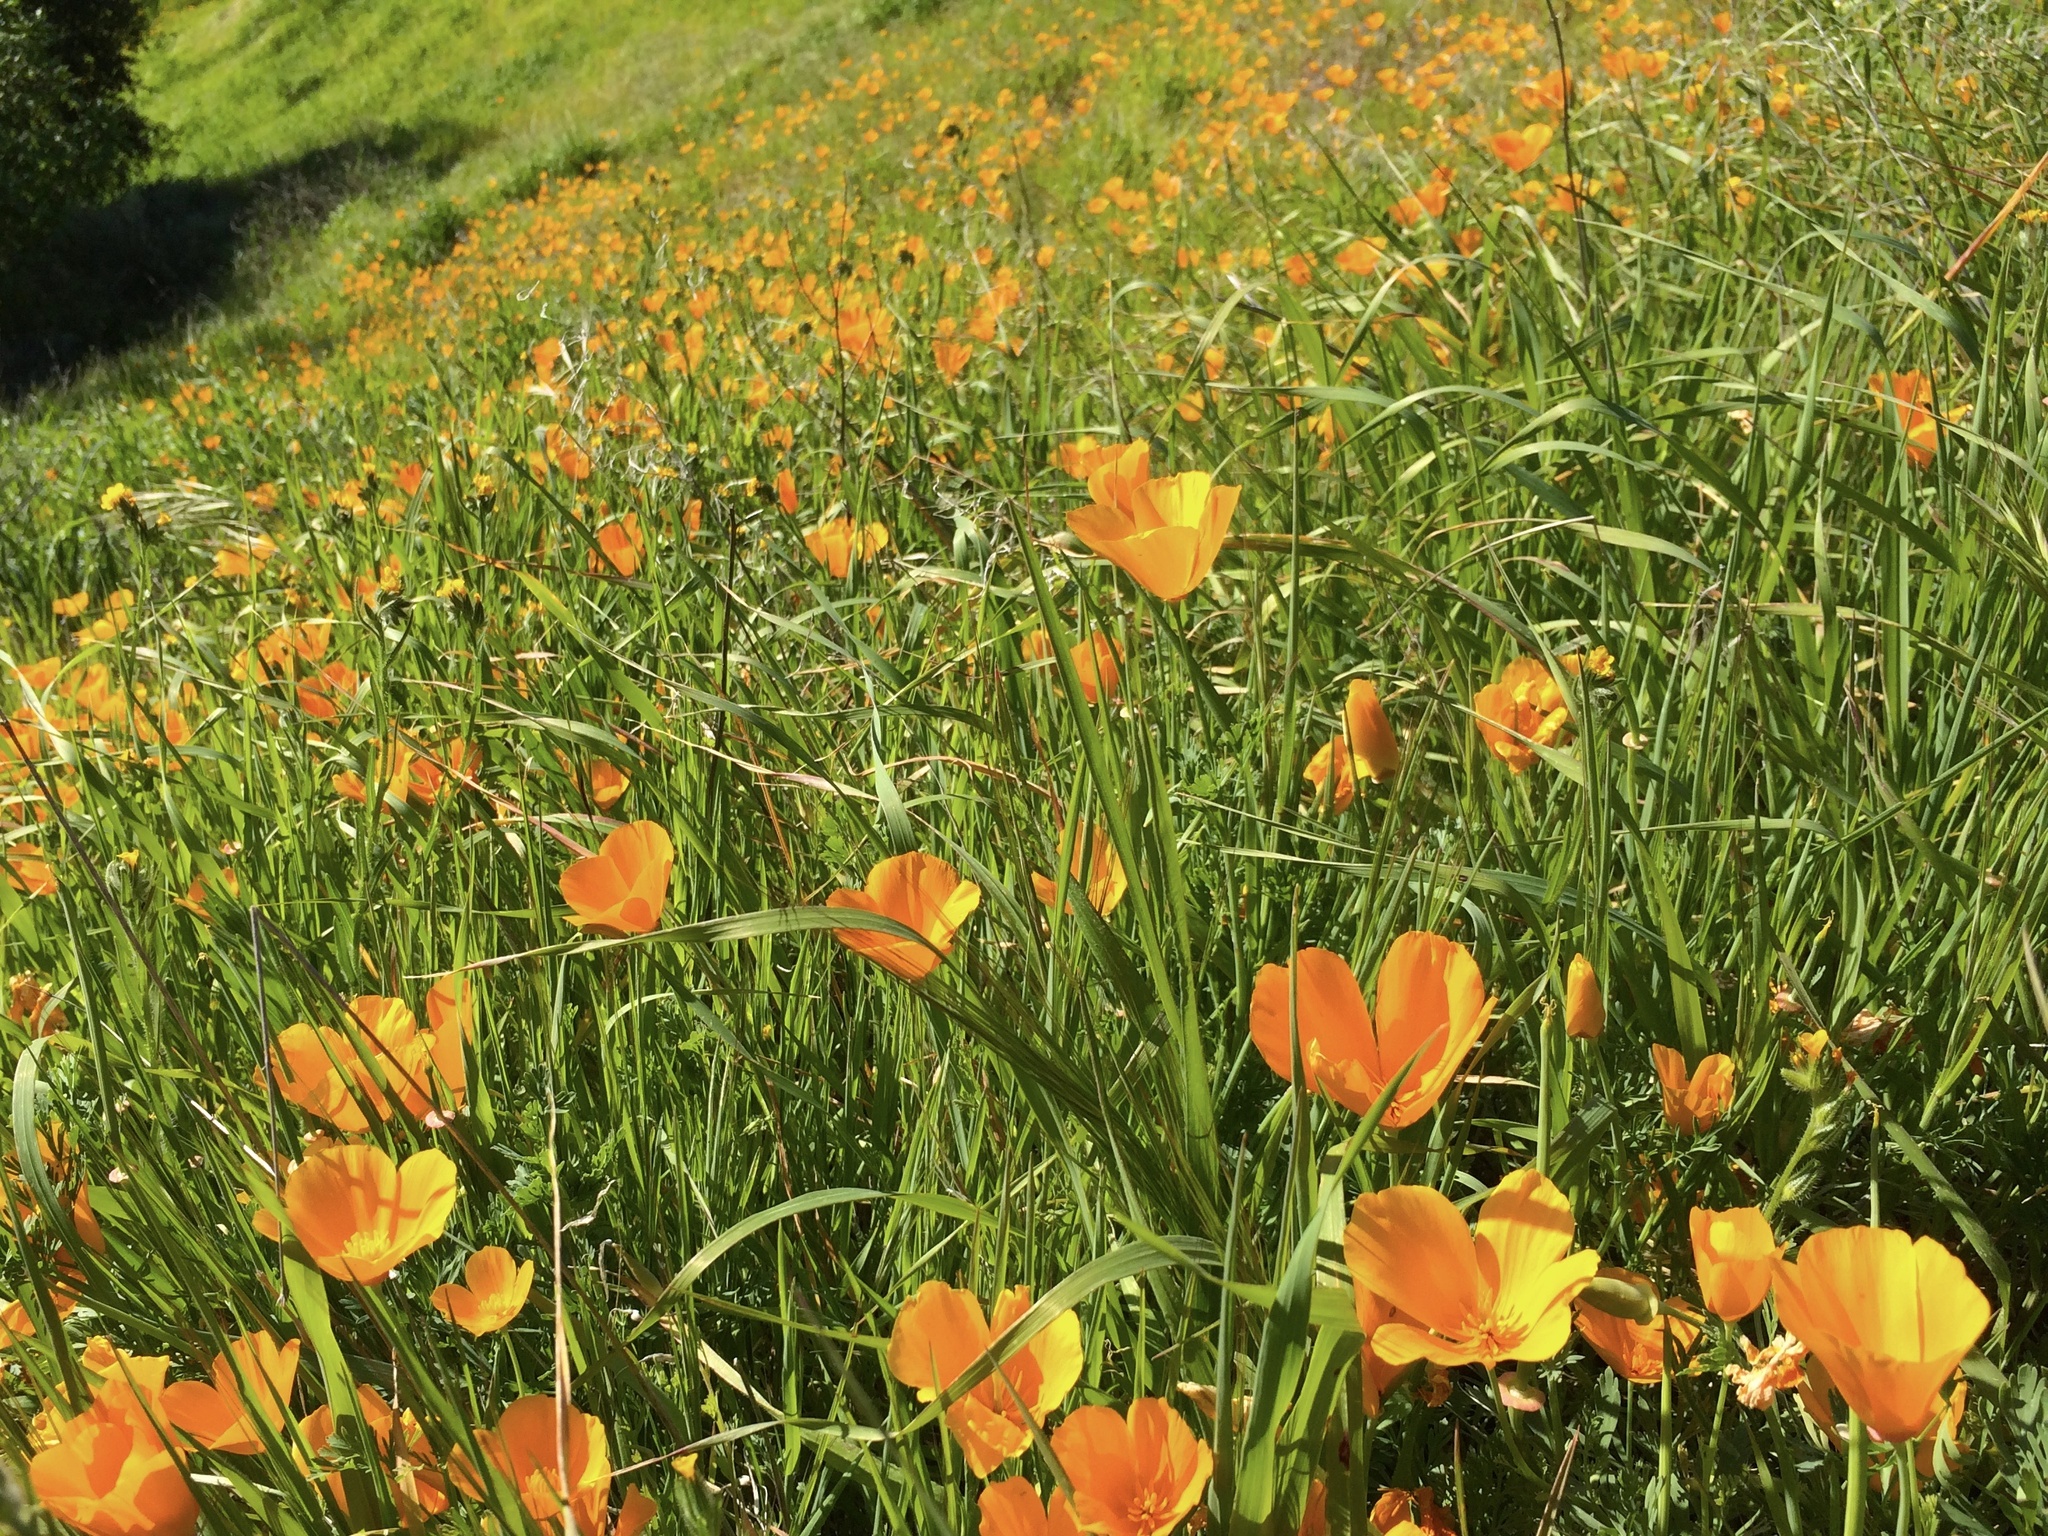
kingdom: Plantae
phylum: Tracheophyta
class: Magnoliopsida
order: Ranunculales
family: Papaveraceae
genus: Eschscholzia
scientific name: Eschscholzia californica
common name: California poppy
